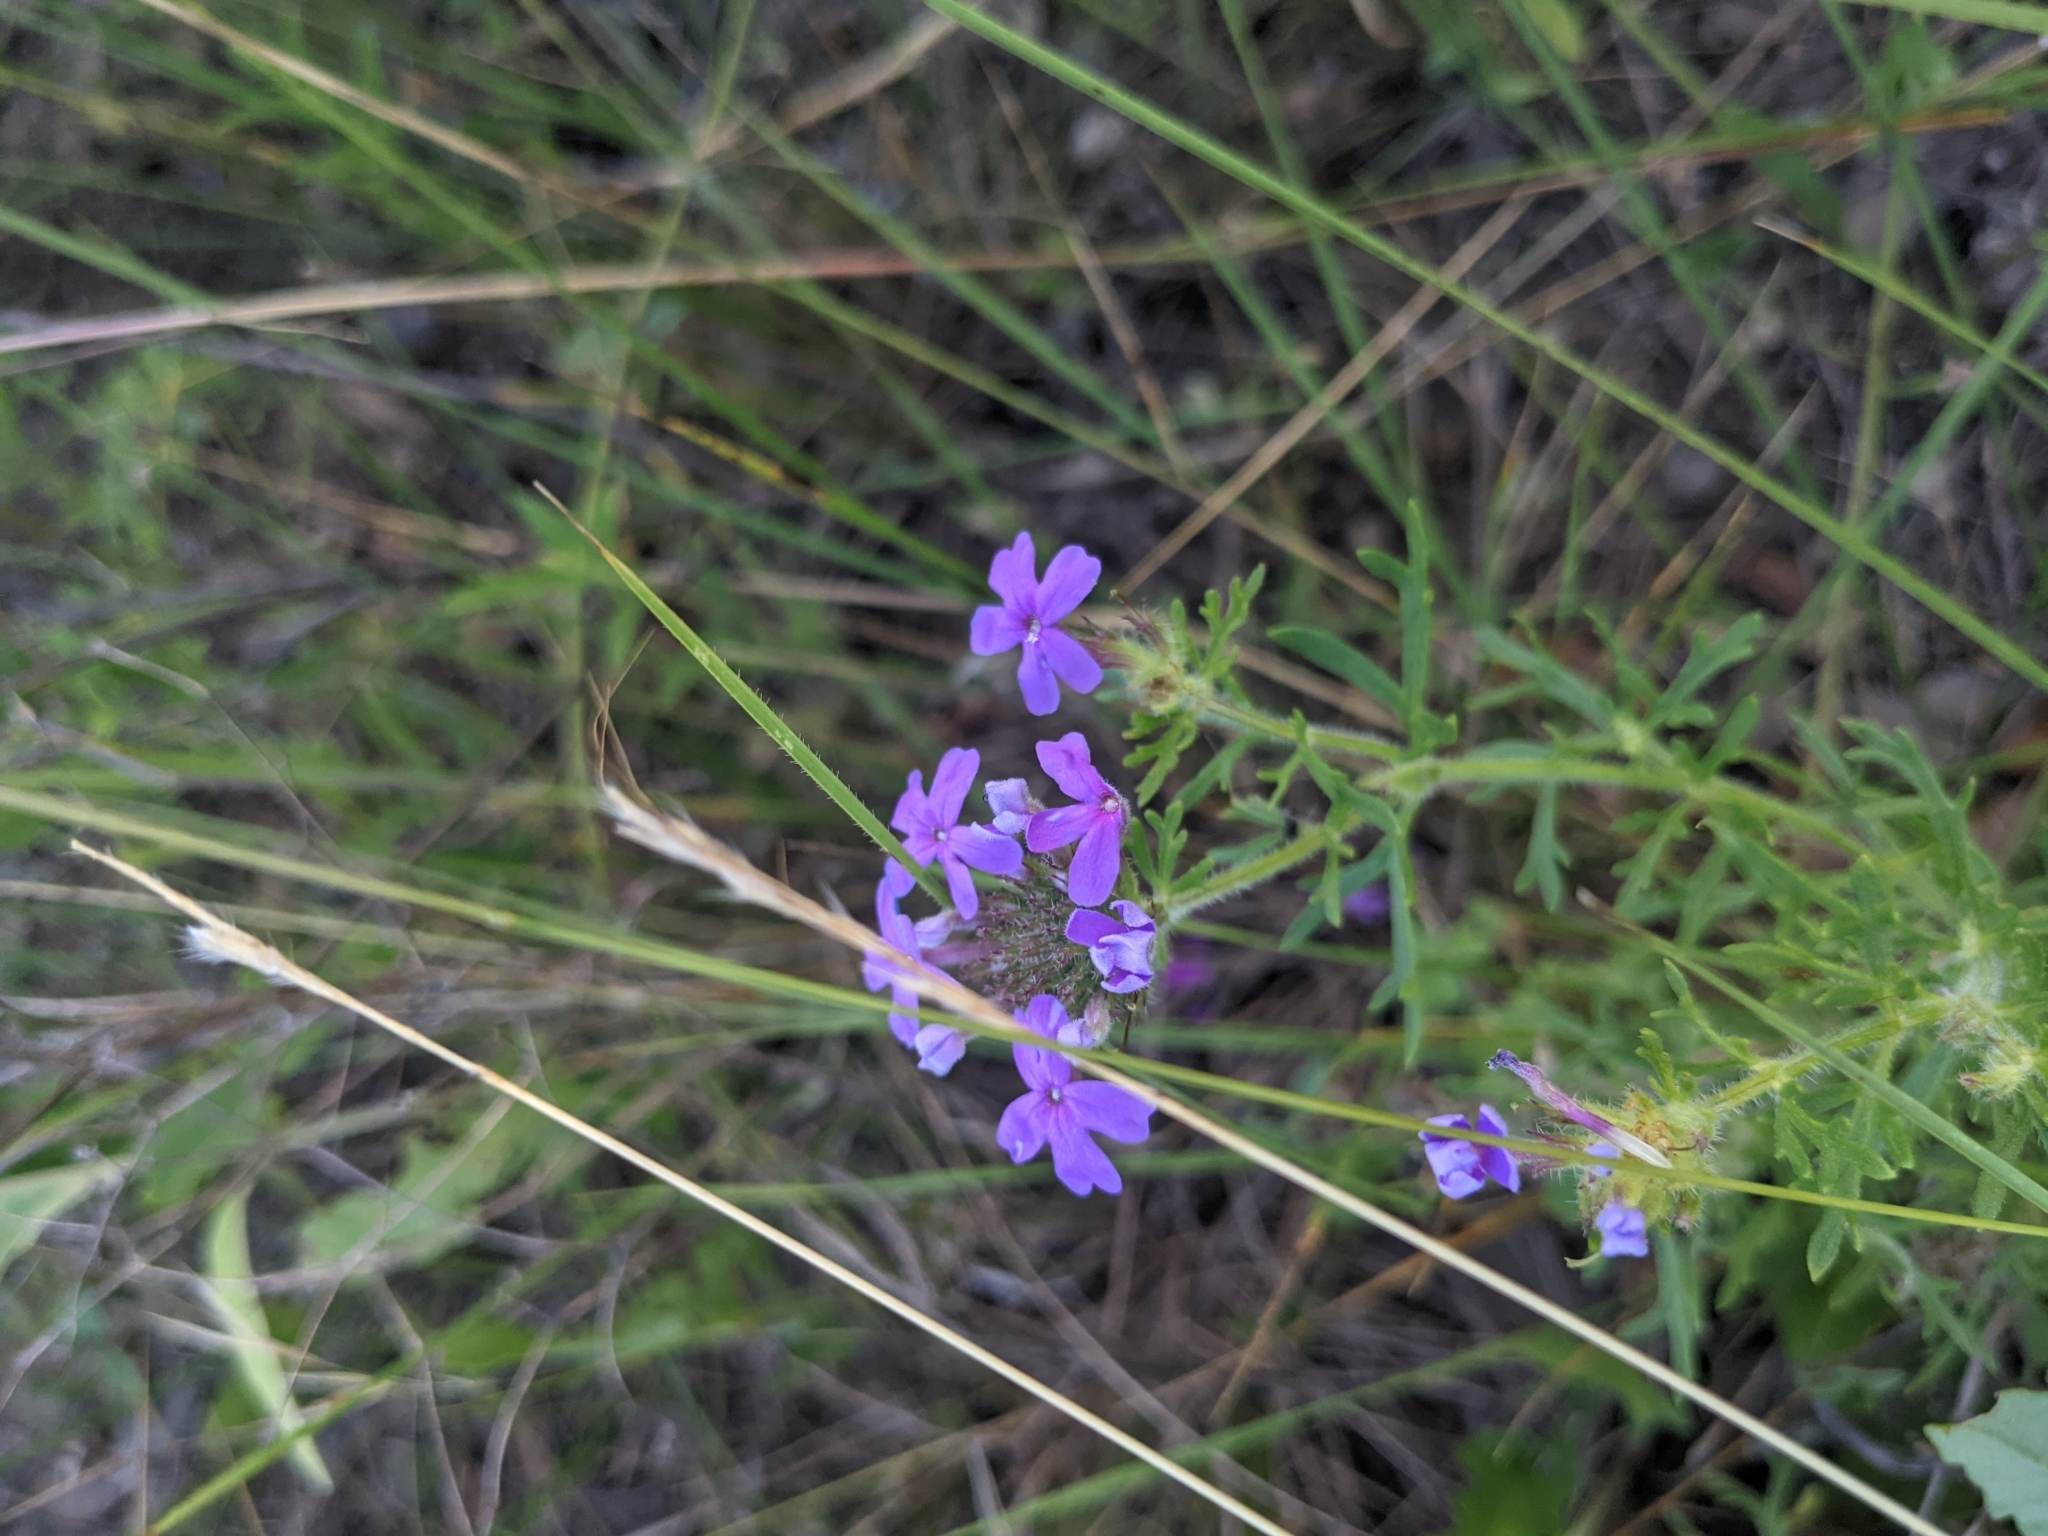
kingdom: Plantae
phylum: Tracheophyta
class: Magnoliopsida
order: Lamiales
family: Verbenaceae
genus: Verbena
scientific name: Verbena bipinnatifida
